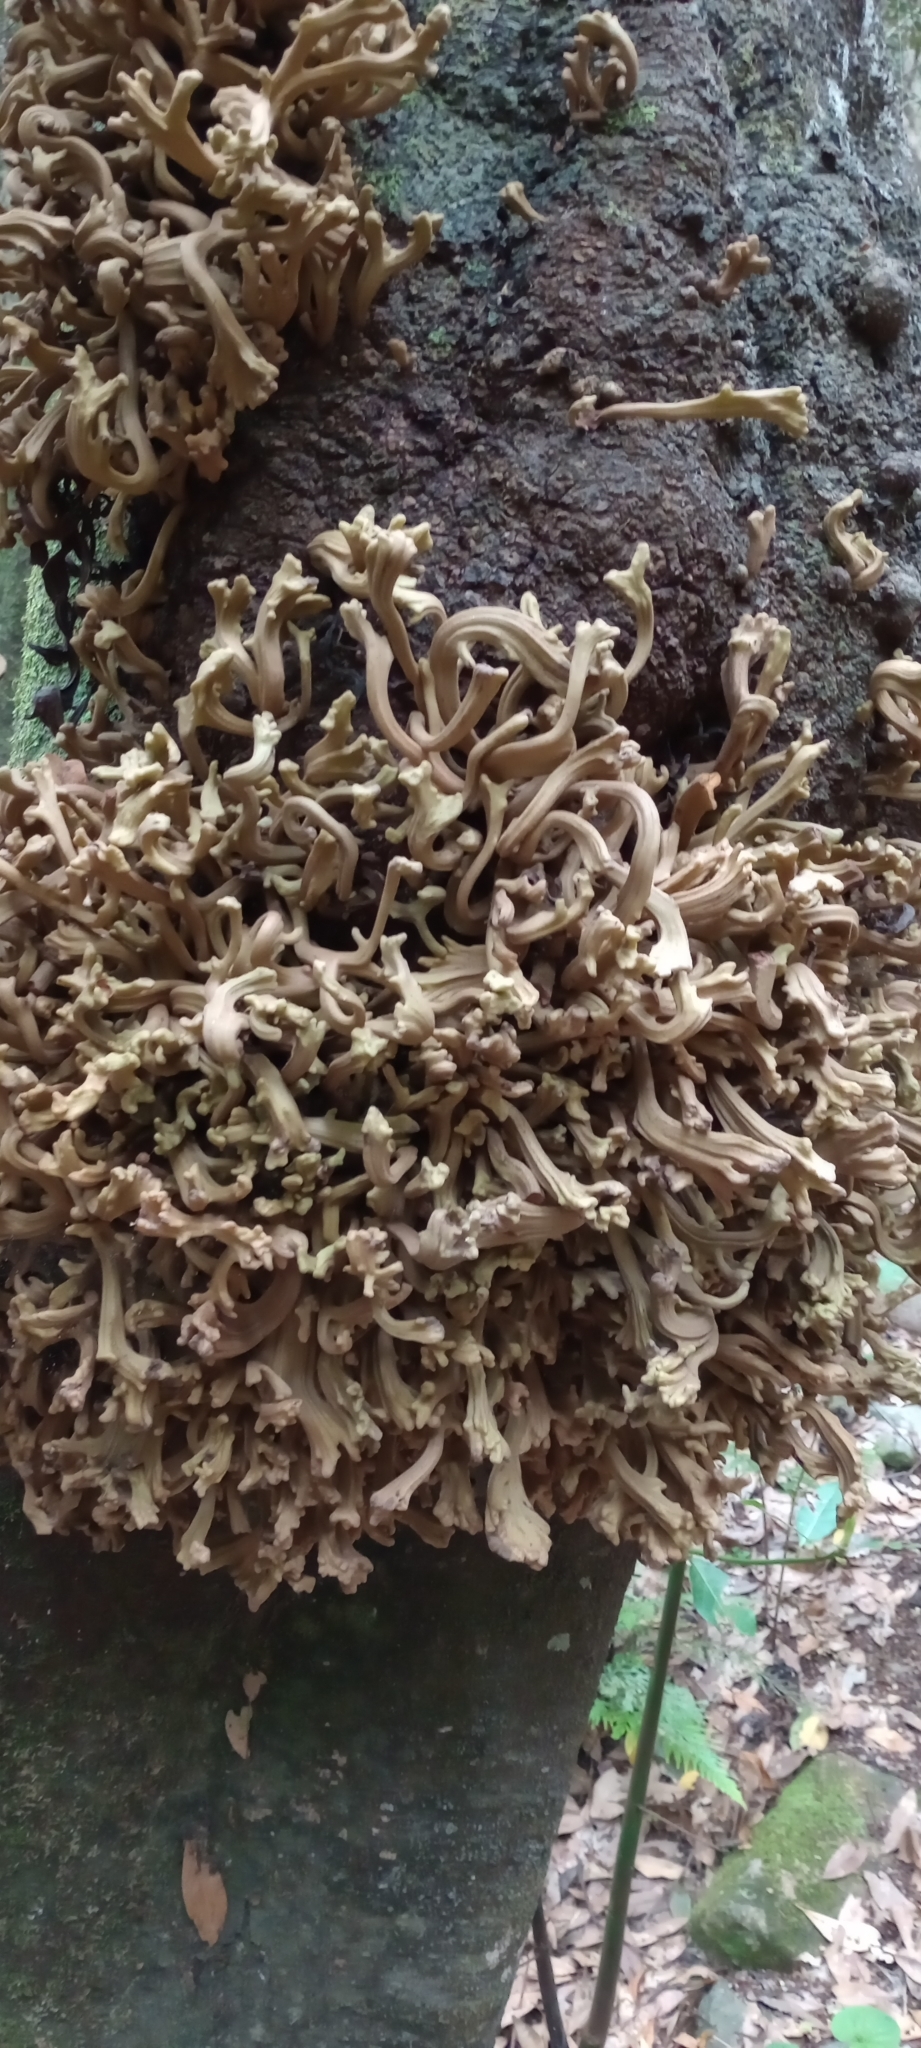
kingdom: Fungi
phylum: Basidiomycota
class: Exobasidiomycetes
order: Exobasidiales
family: Laurobasidiaceae
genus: Laurobasidium
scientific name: Laurobasidium lauri
